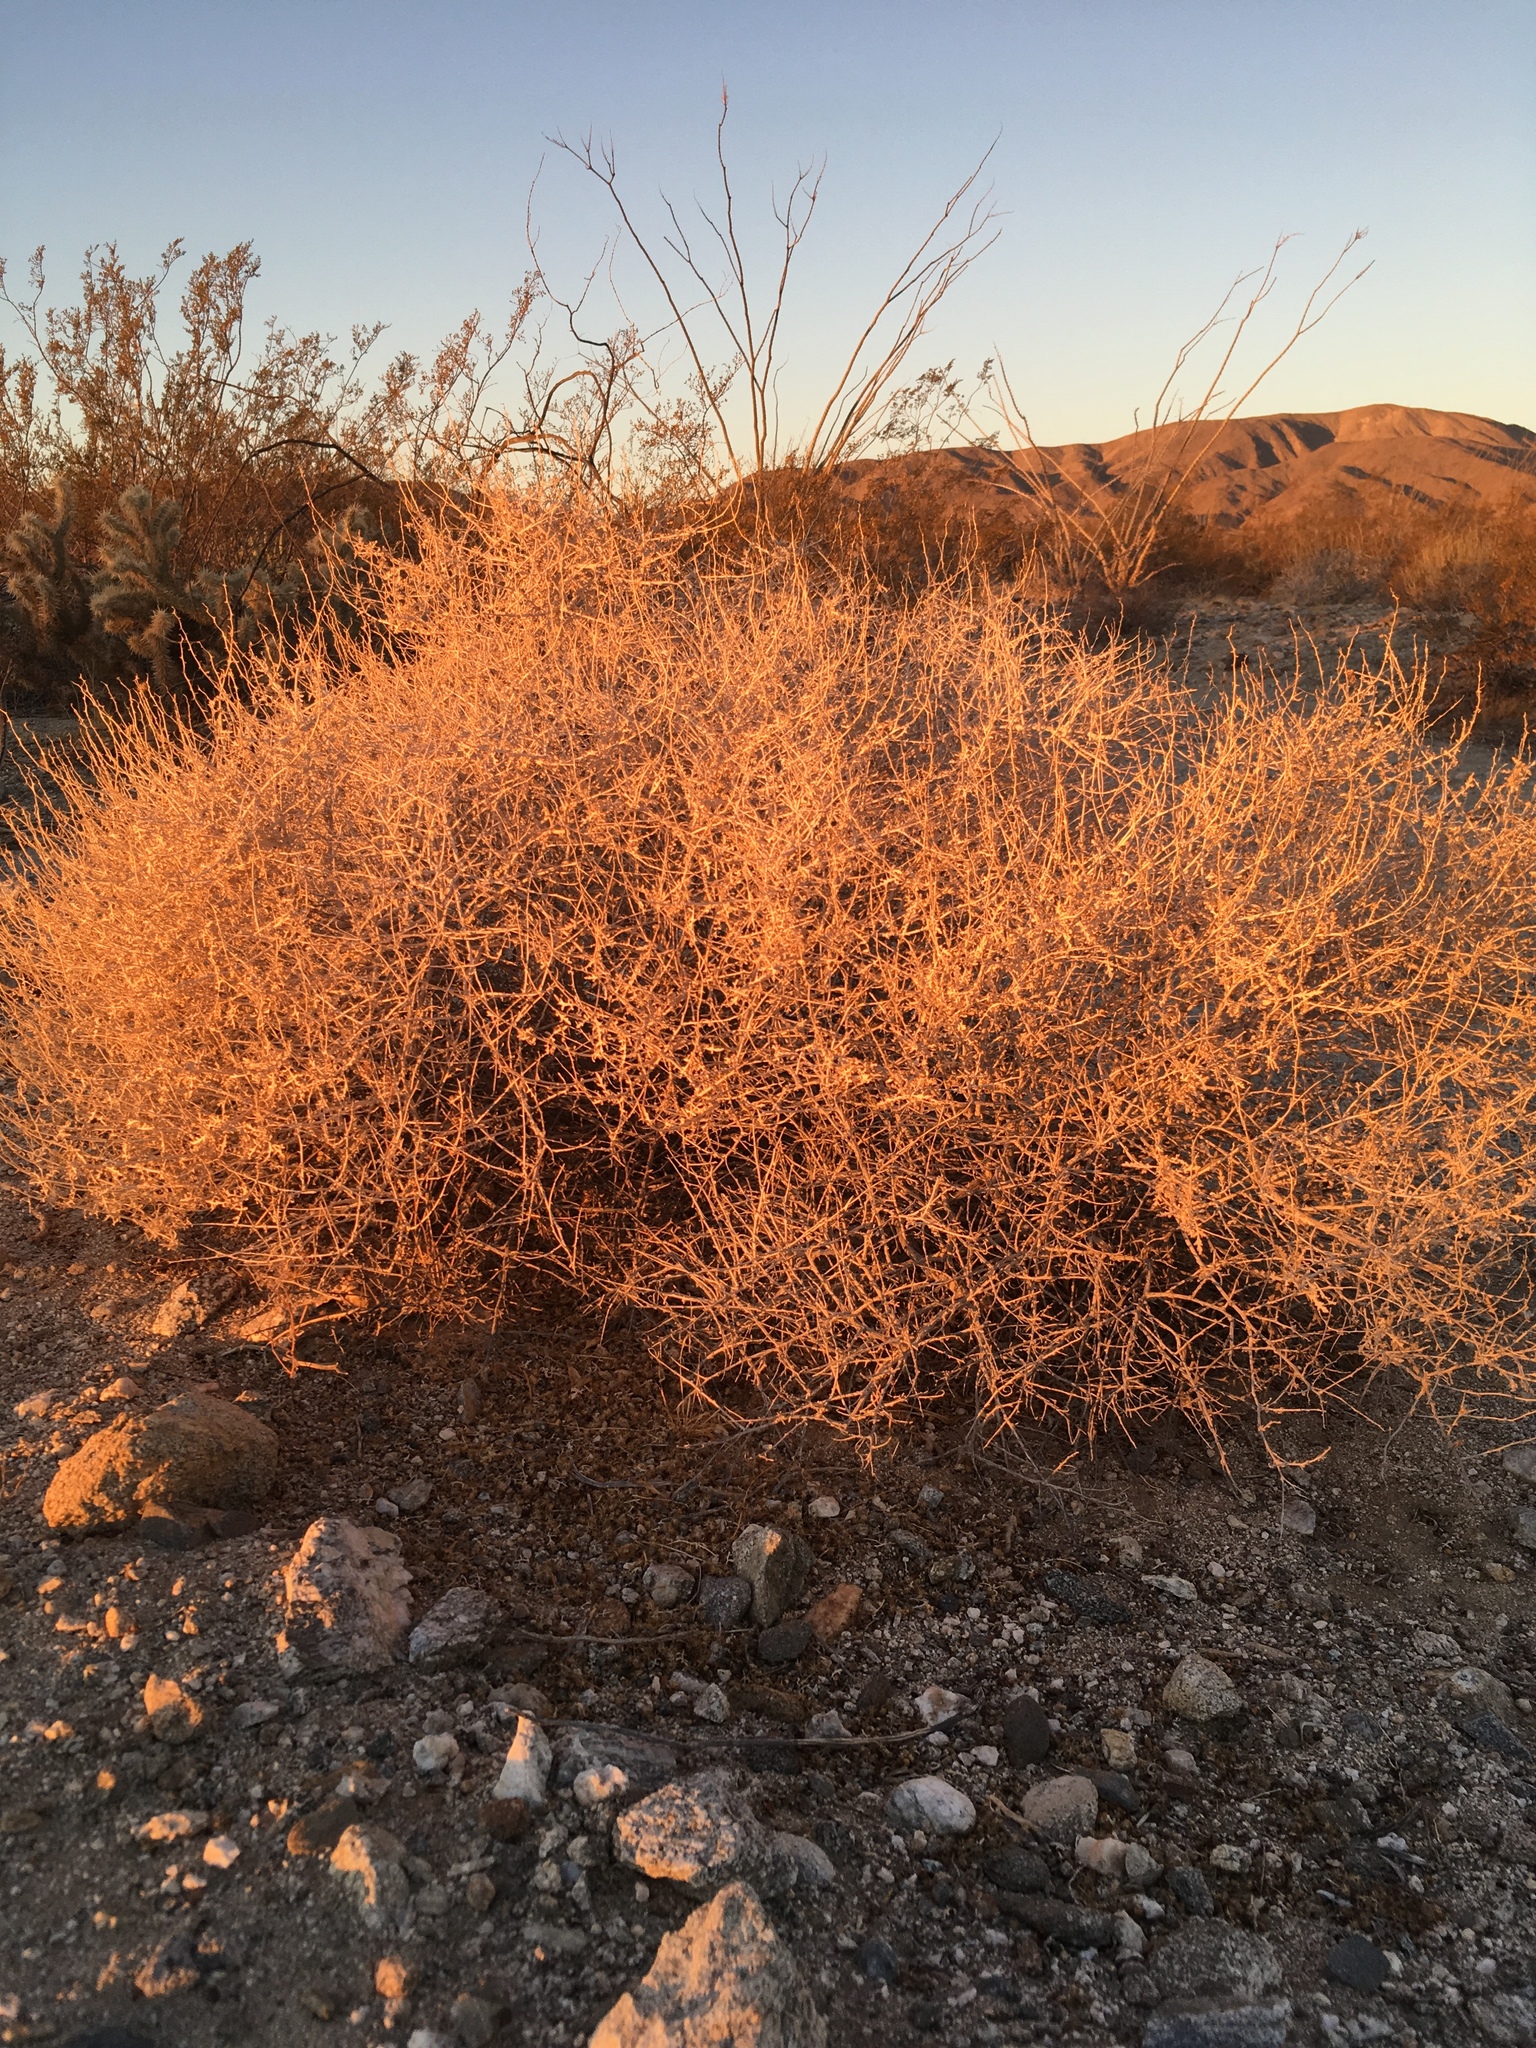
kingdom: Plantae
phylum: Tracheophyta
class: Magnoliopsida
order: Asterales
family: Asteraceae
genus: Ambrosia
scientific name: Ambrosia dumosa
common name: Bur-sage
